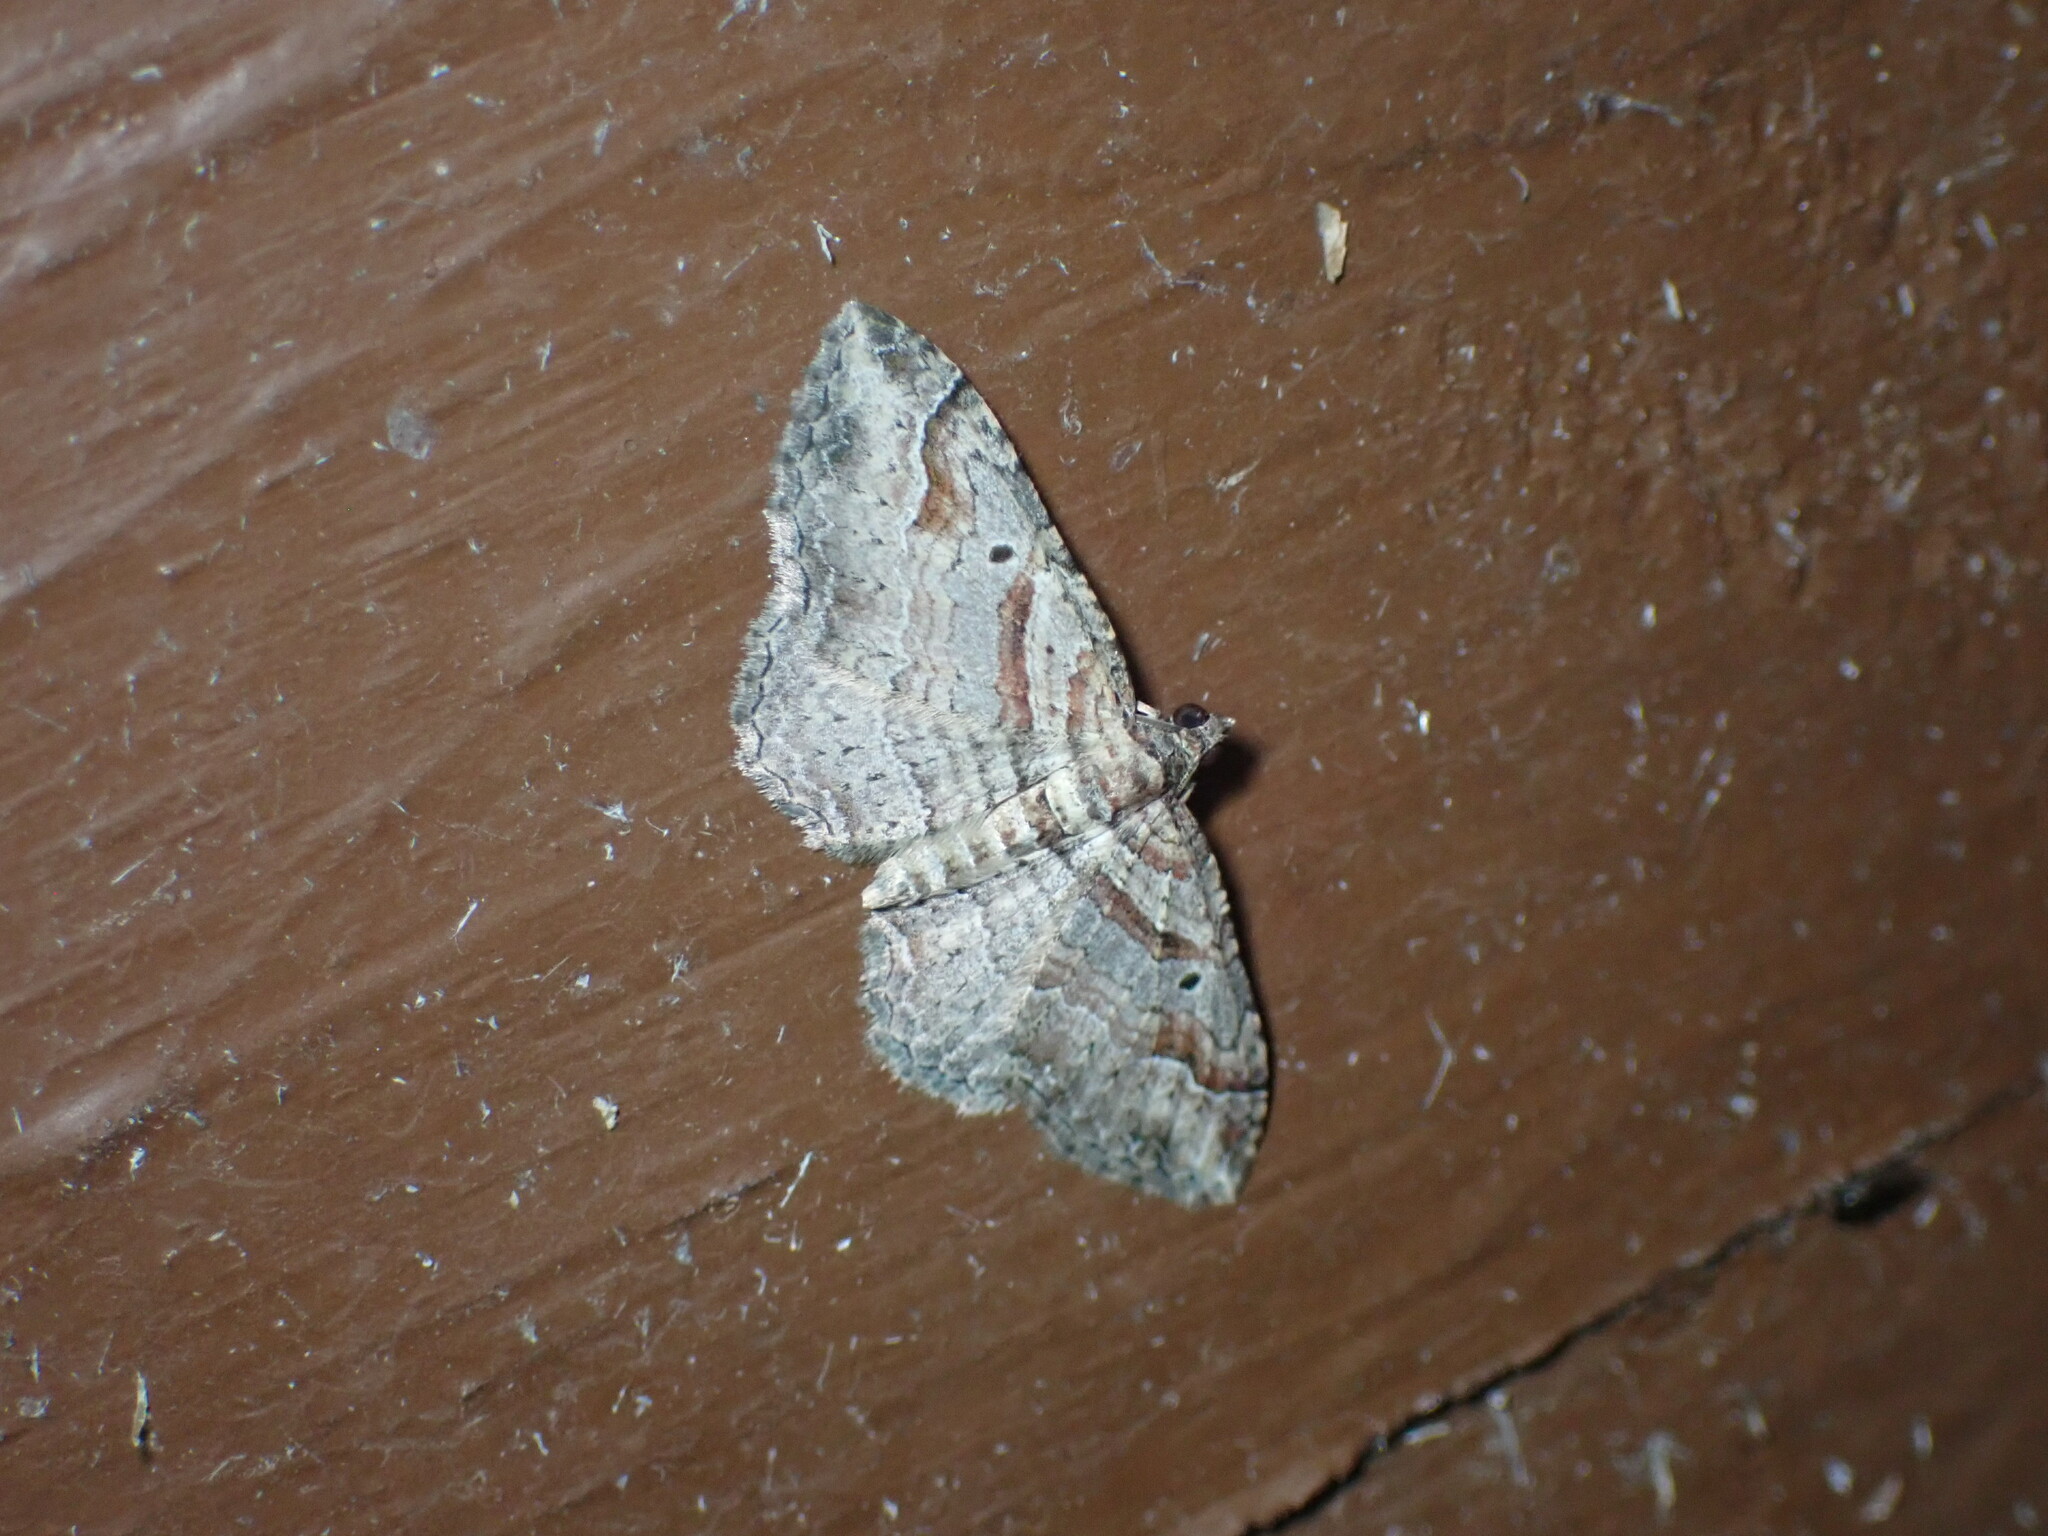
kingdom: Animalia
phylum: Arthropoda
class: Insecta
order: Lepidoptera
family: Geometridae
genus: Costaconvexa
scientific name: Costaconvexa centrostrigaria
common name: Bent-line carpet
